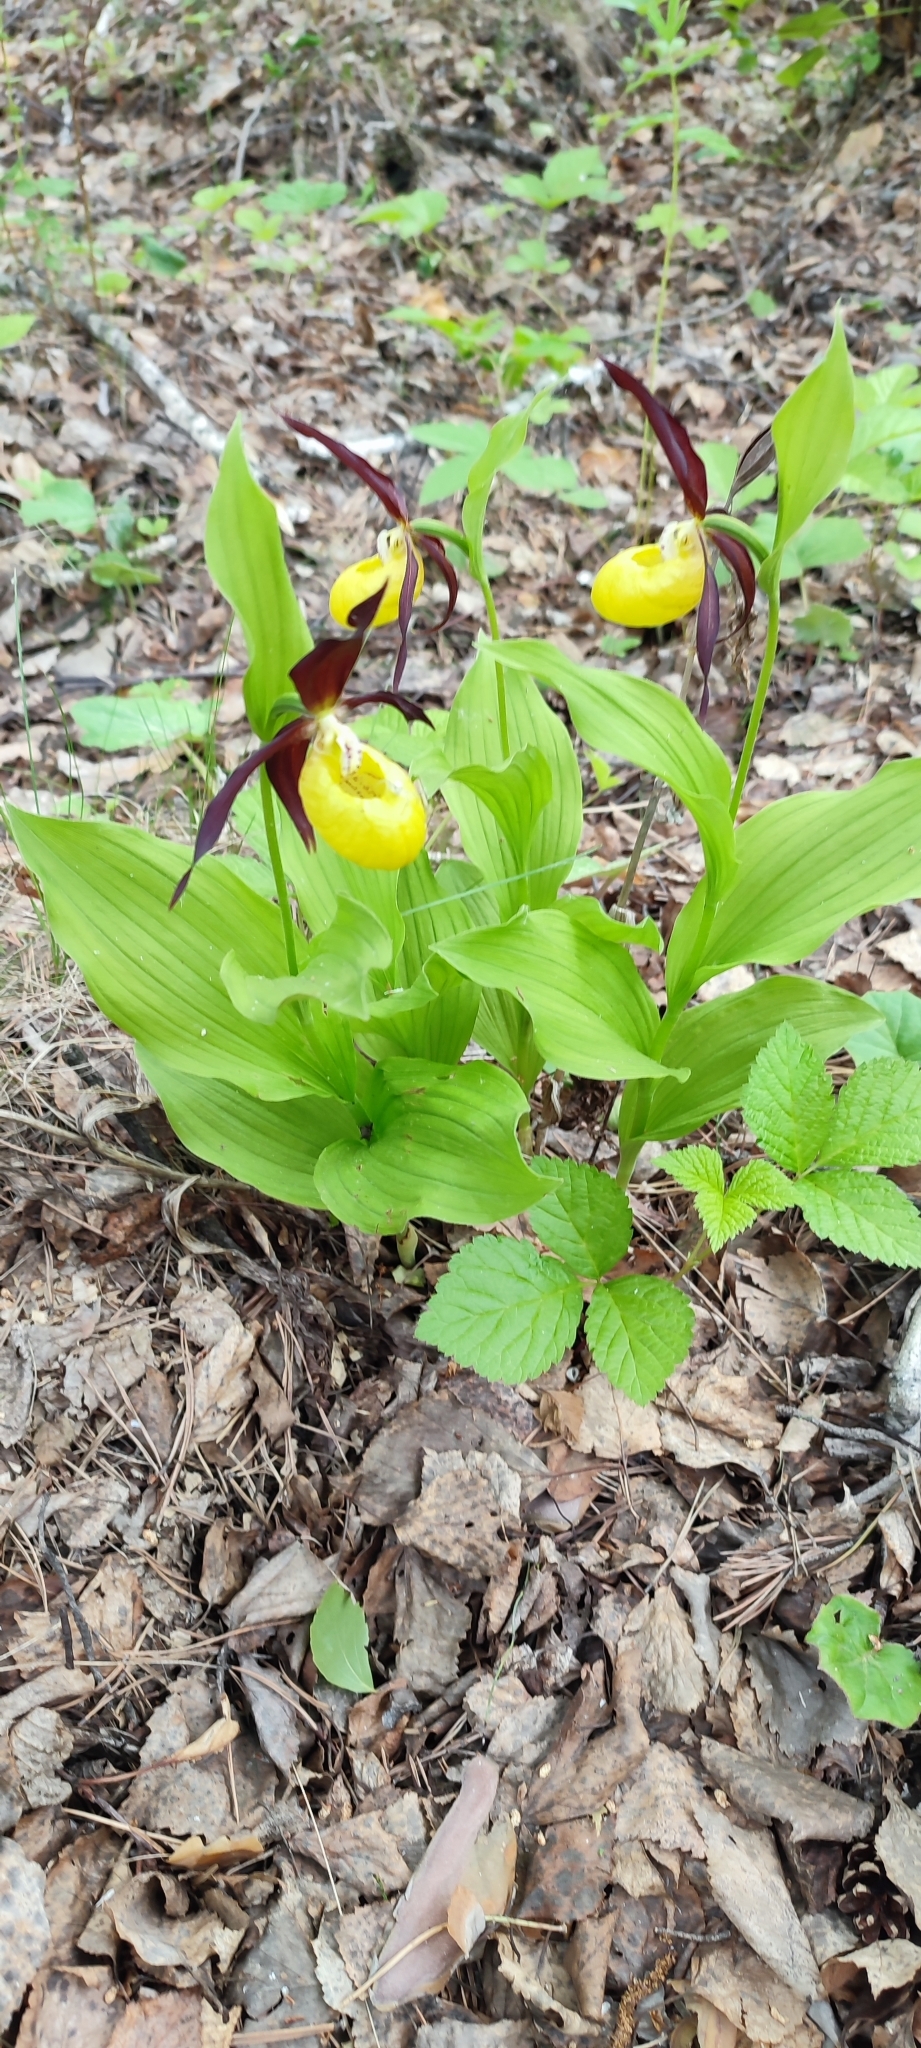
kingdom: Plantae
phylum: Tracheophyta
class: Liliopsida
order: Asparagales
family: Orchidaceae
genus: Cypripedium
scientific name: Cypripedium calceolus
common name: Lady's-slipper
